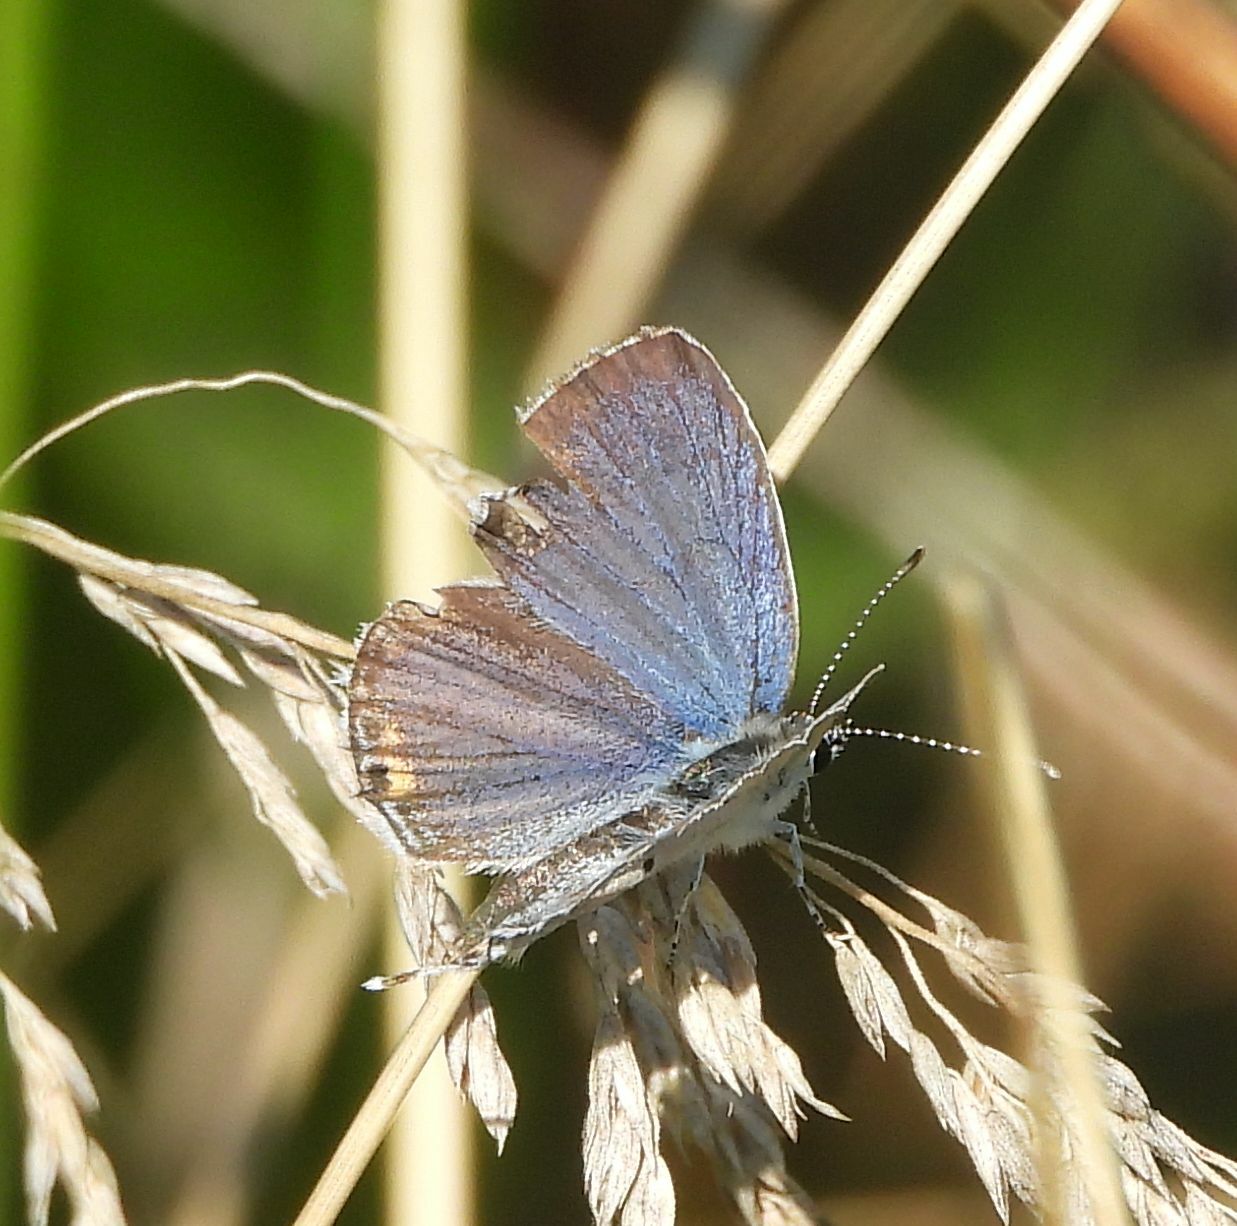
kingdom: Animalia
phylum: Arthropoda
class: Insecta
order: Lepidoptera
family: Lycaenidae
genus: Elkalyce
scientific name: Elkalyce comyntas
